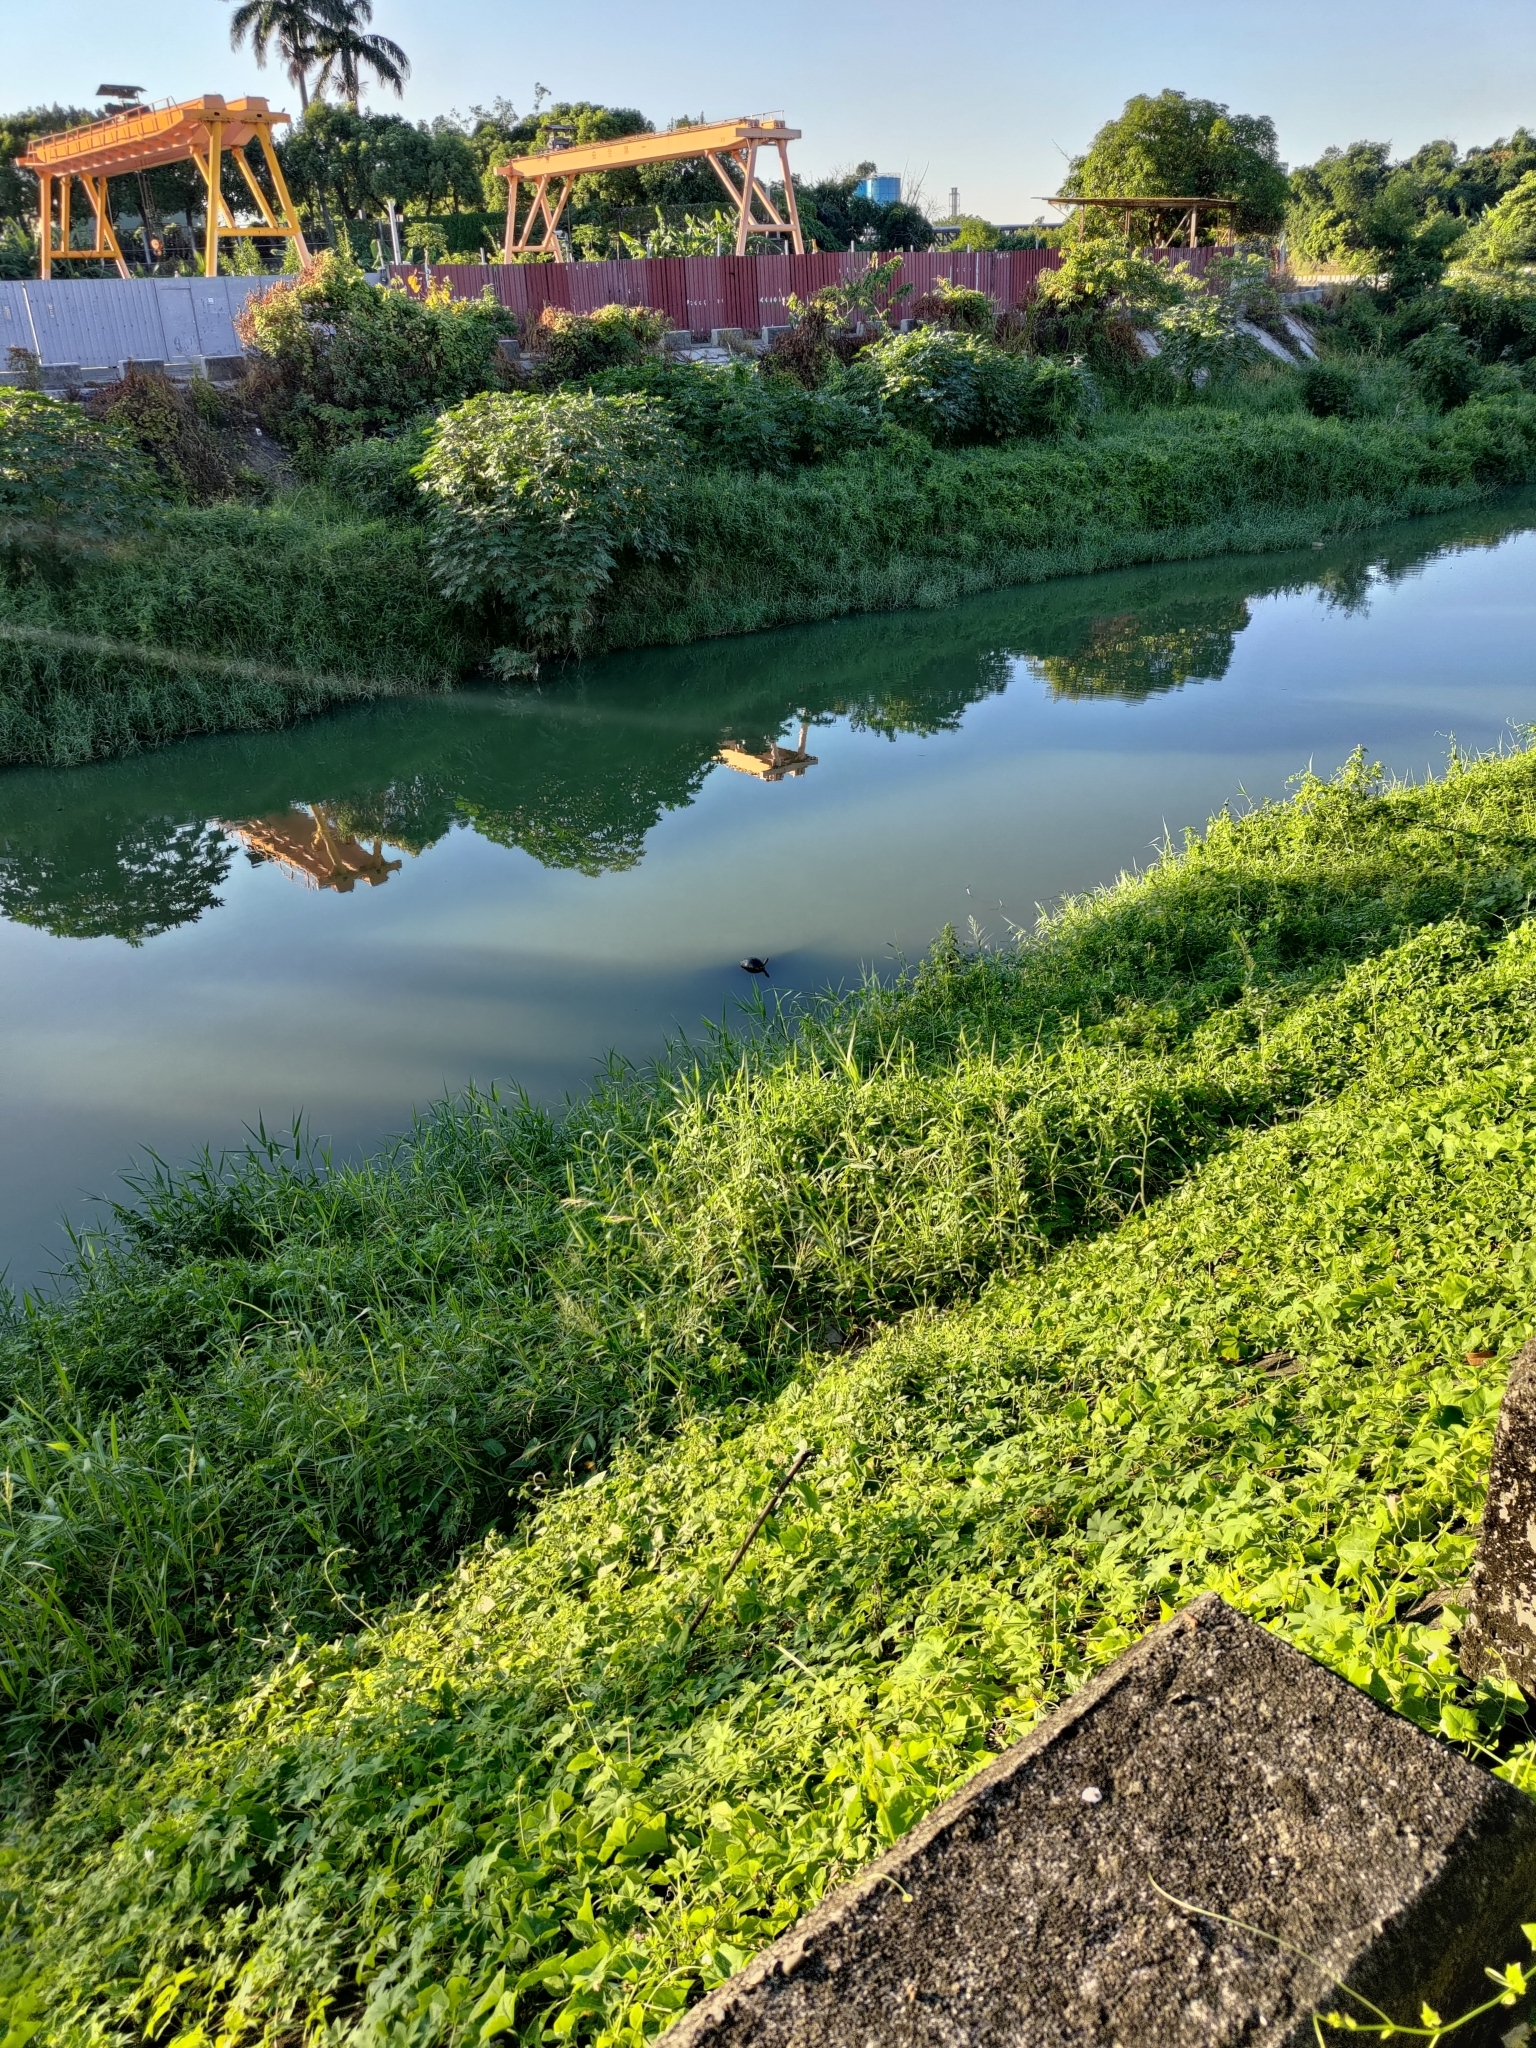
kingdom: Animalia
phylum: Chordata
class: Testudines
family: Geoemydidae
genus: Mauremys
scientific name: Mauremys sinensis
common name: Chinese stripe-necked turtle
